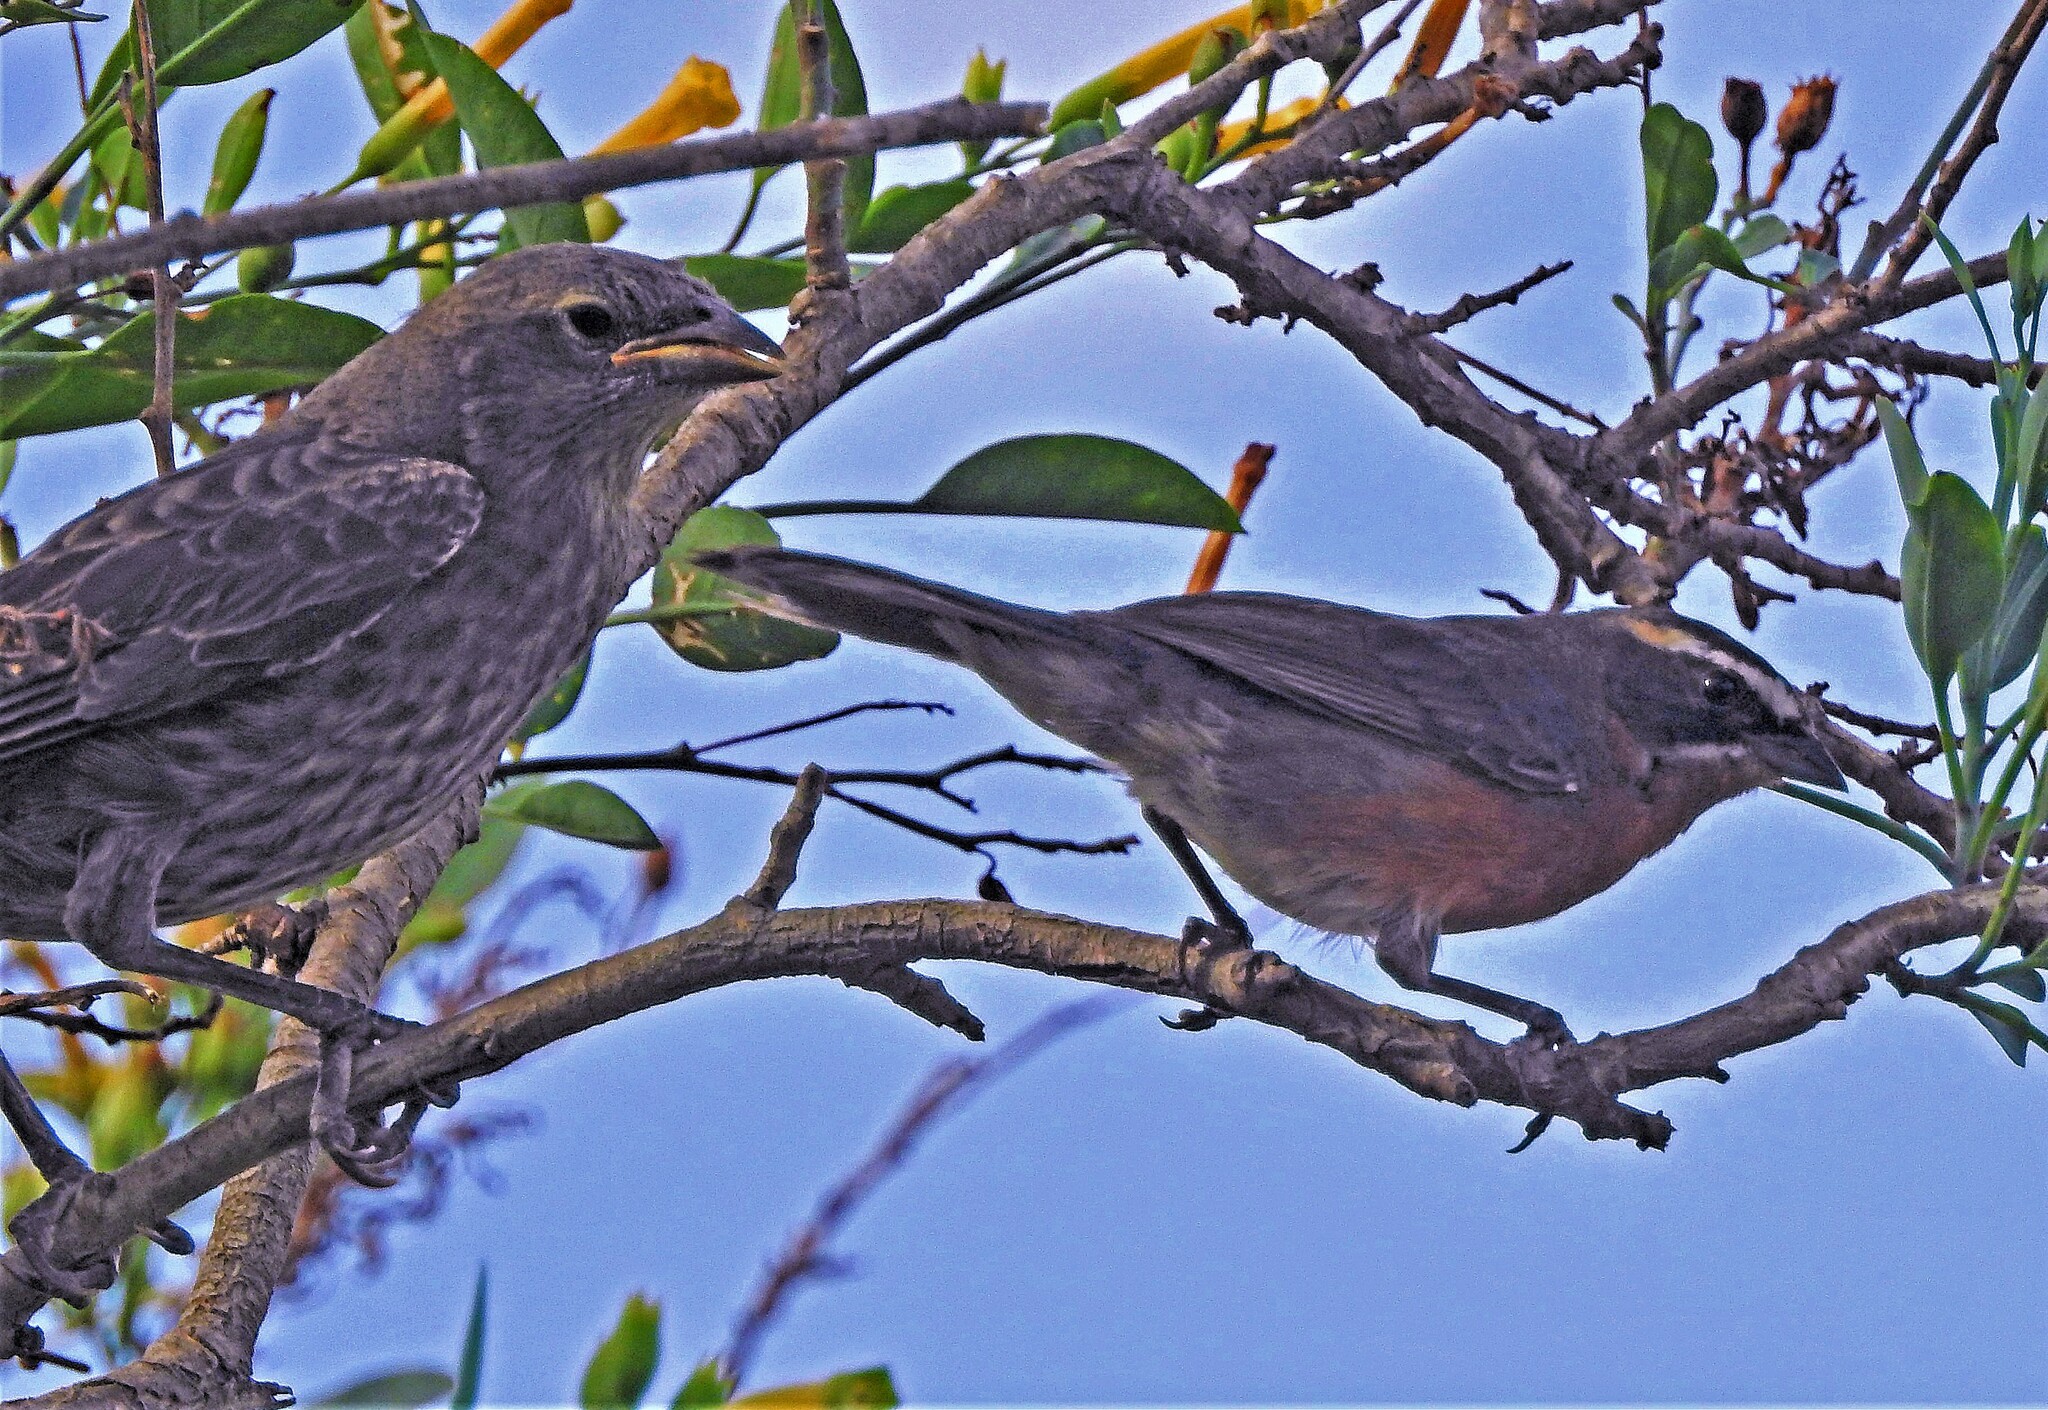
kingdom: Animalia
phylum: Chordata
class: Aves
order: Passeriformes
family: Thraupidae
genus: Poospiza
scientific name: Poospiza nigrorufa
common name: Black-and-rufous warbling finch
